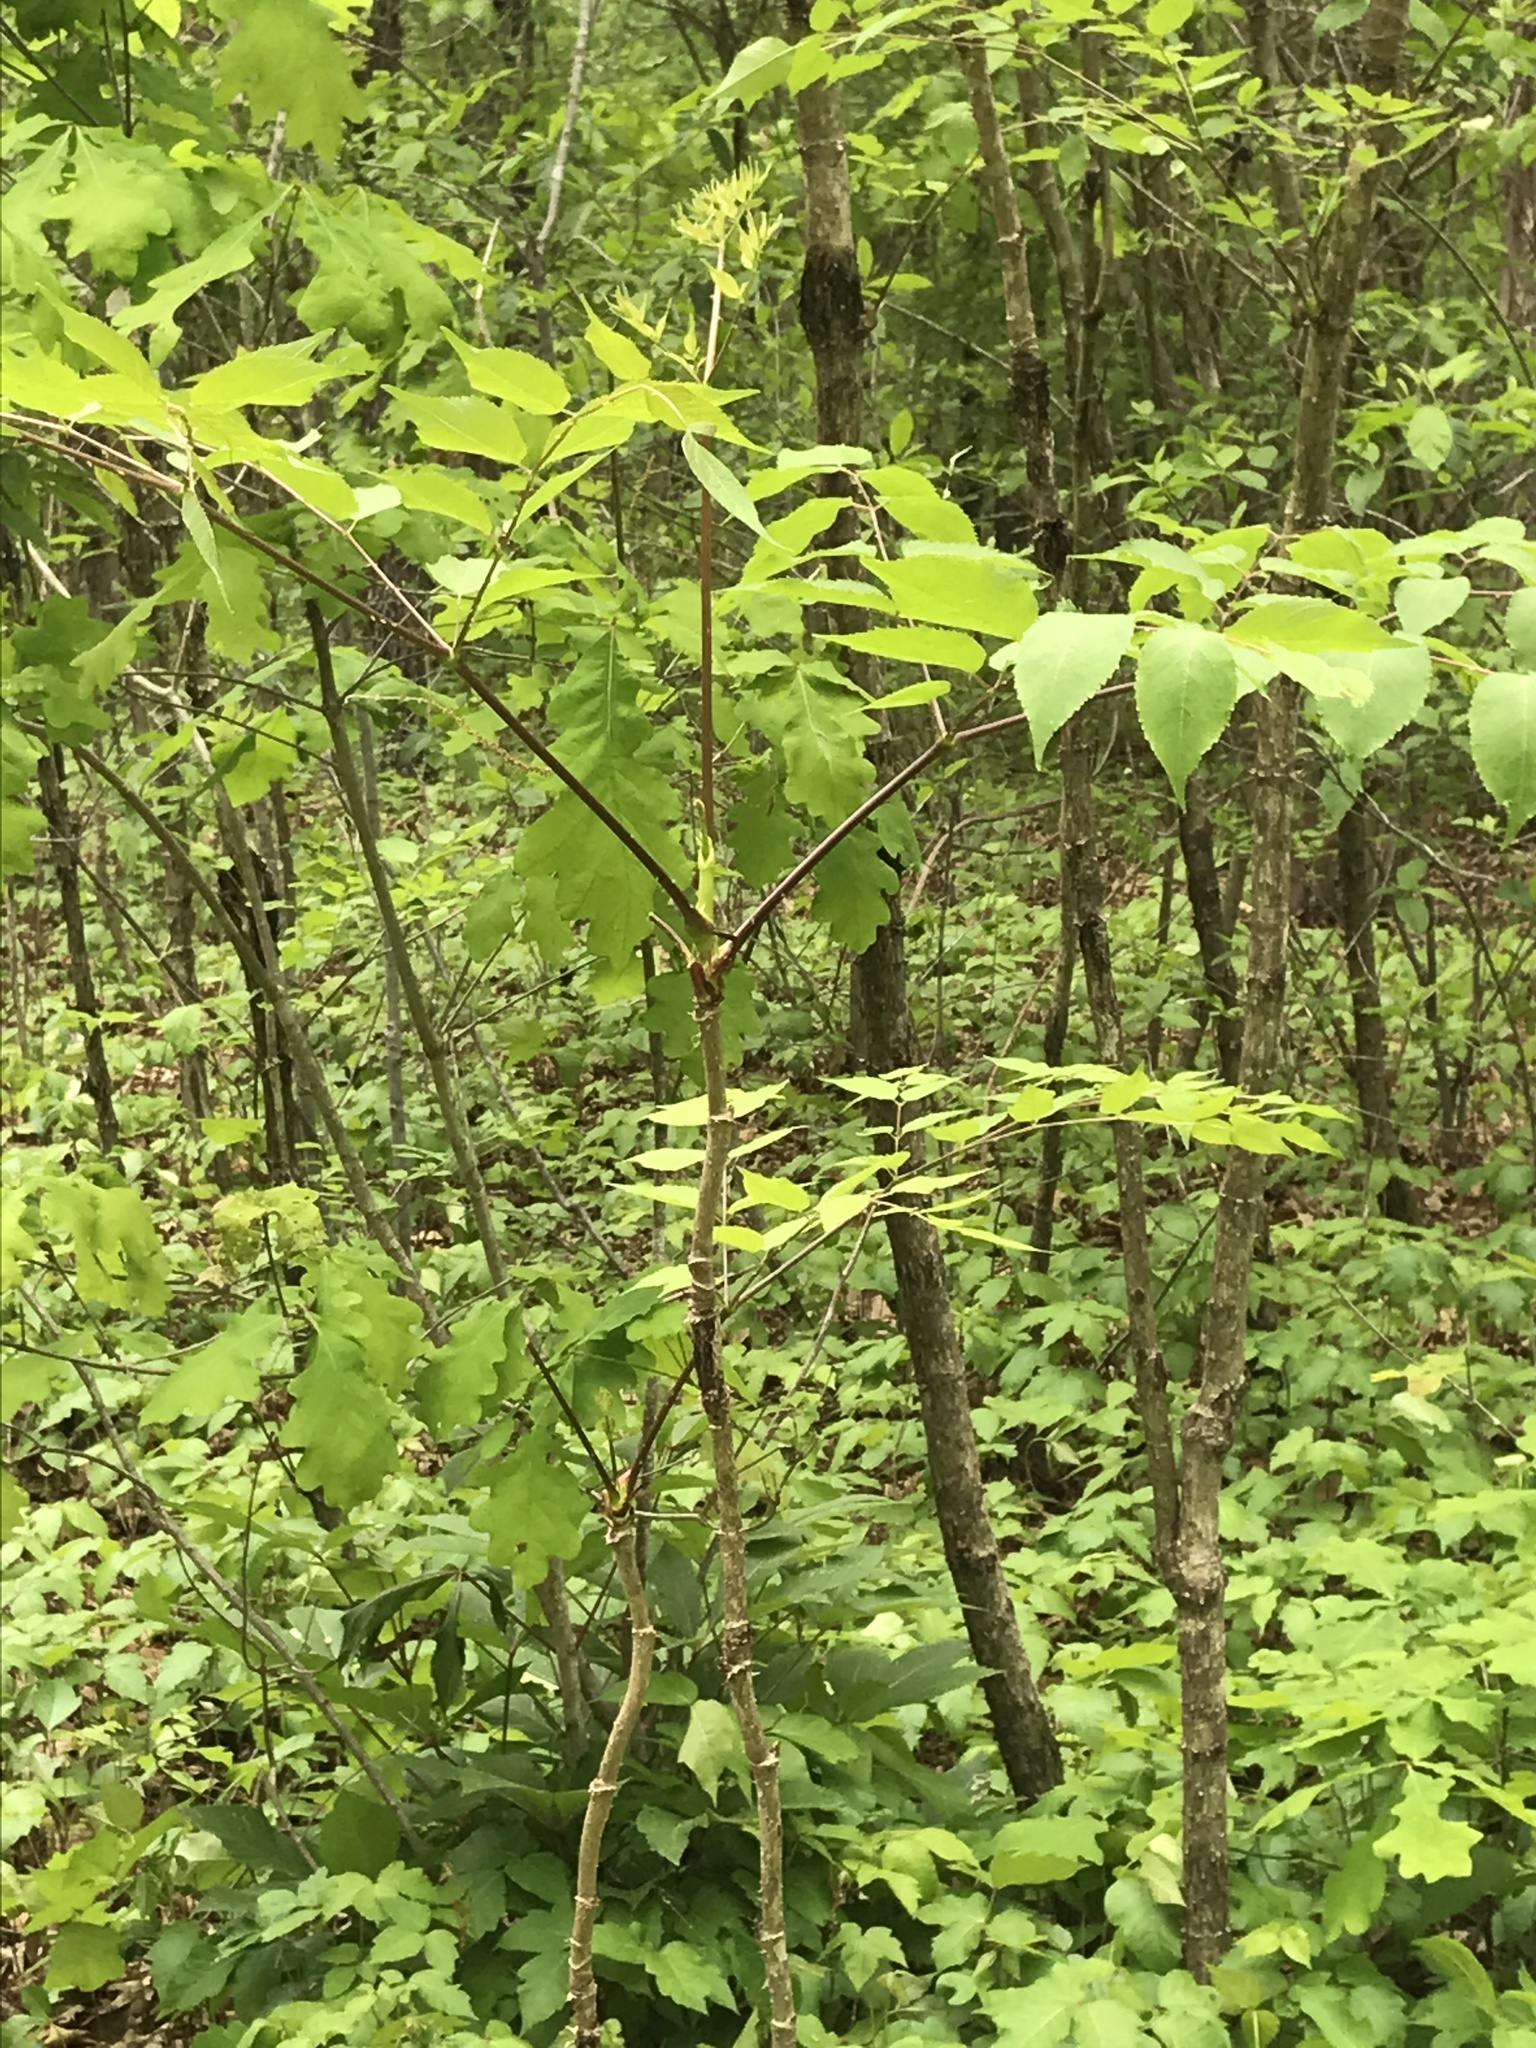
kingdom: Plantae
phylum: Tracheophyta
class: Magnoliopsida
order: Apiales
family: Araliaceae
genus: Aralia
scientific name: Aralia spinosa
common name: Hercules'-club
